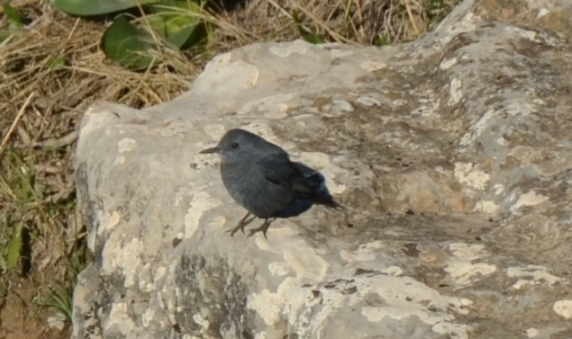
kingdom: Animalia
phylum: Chordata
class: Aves
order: Passeriformes
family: Muscicapidae
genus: Monticola
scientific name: Monticola solitarius
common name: Blue rock thrush
